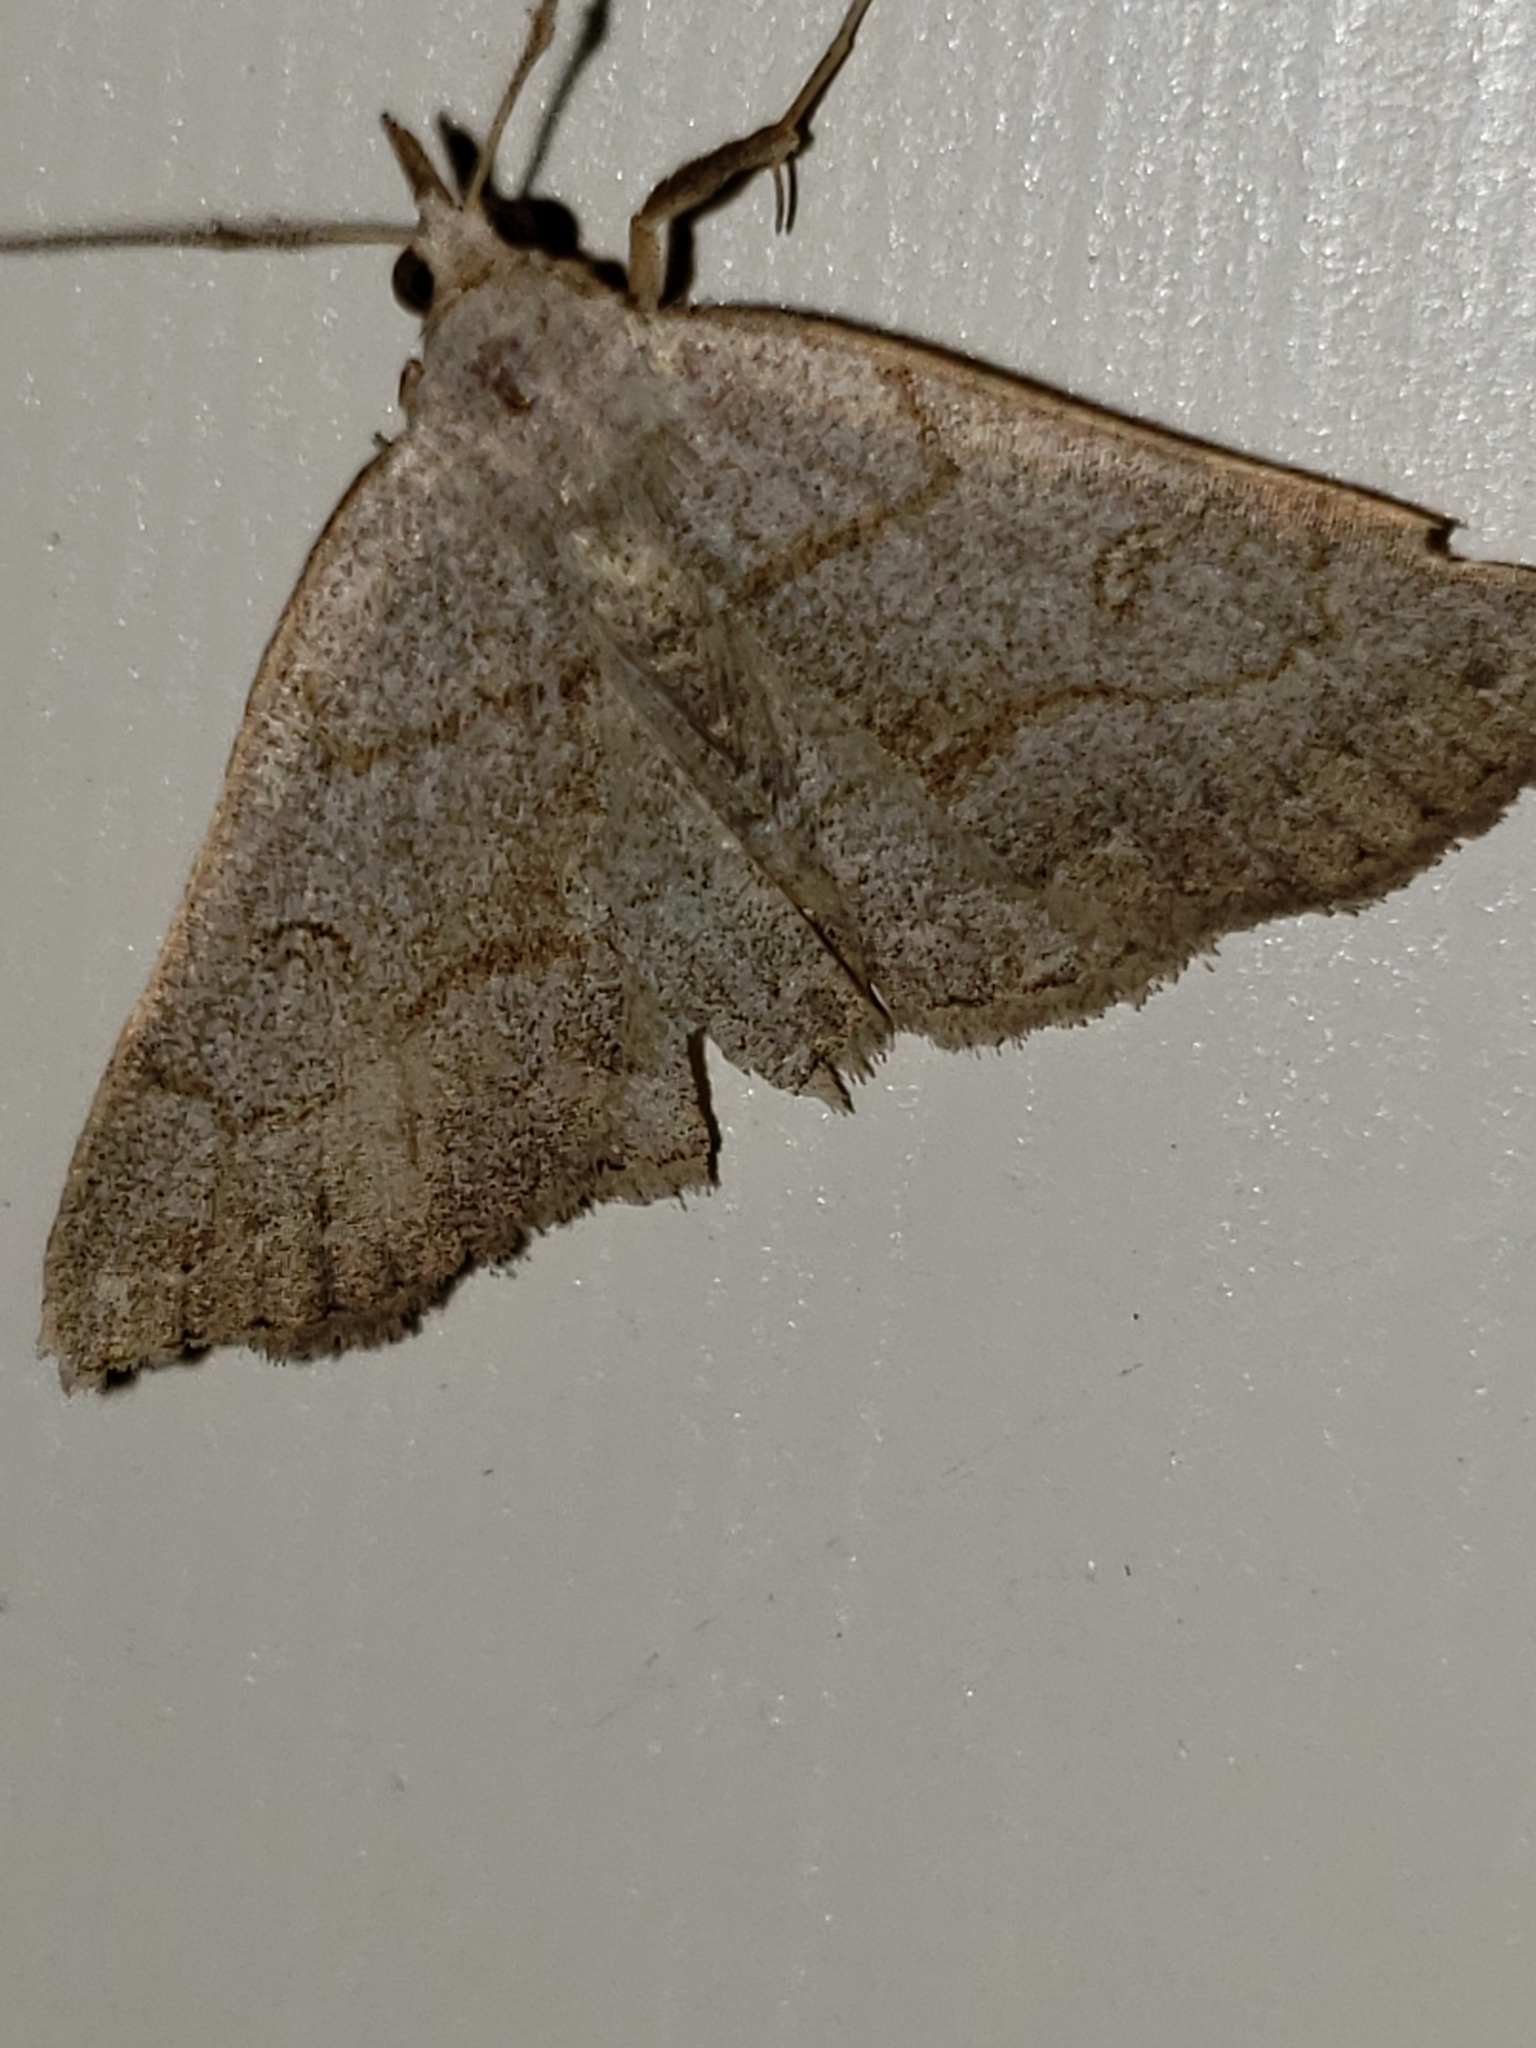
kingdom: Animalia
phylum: Arthropoda
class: Insecta
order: Lepidoptera
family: Erebidae
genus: Macrochilo
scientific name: Macrochilo morbidalis
